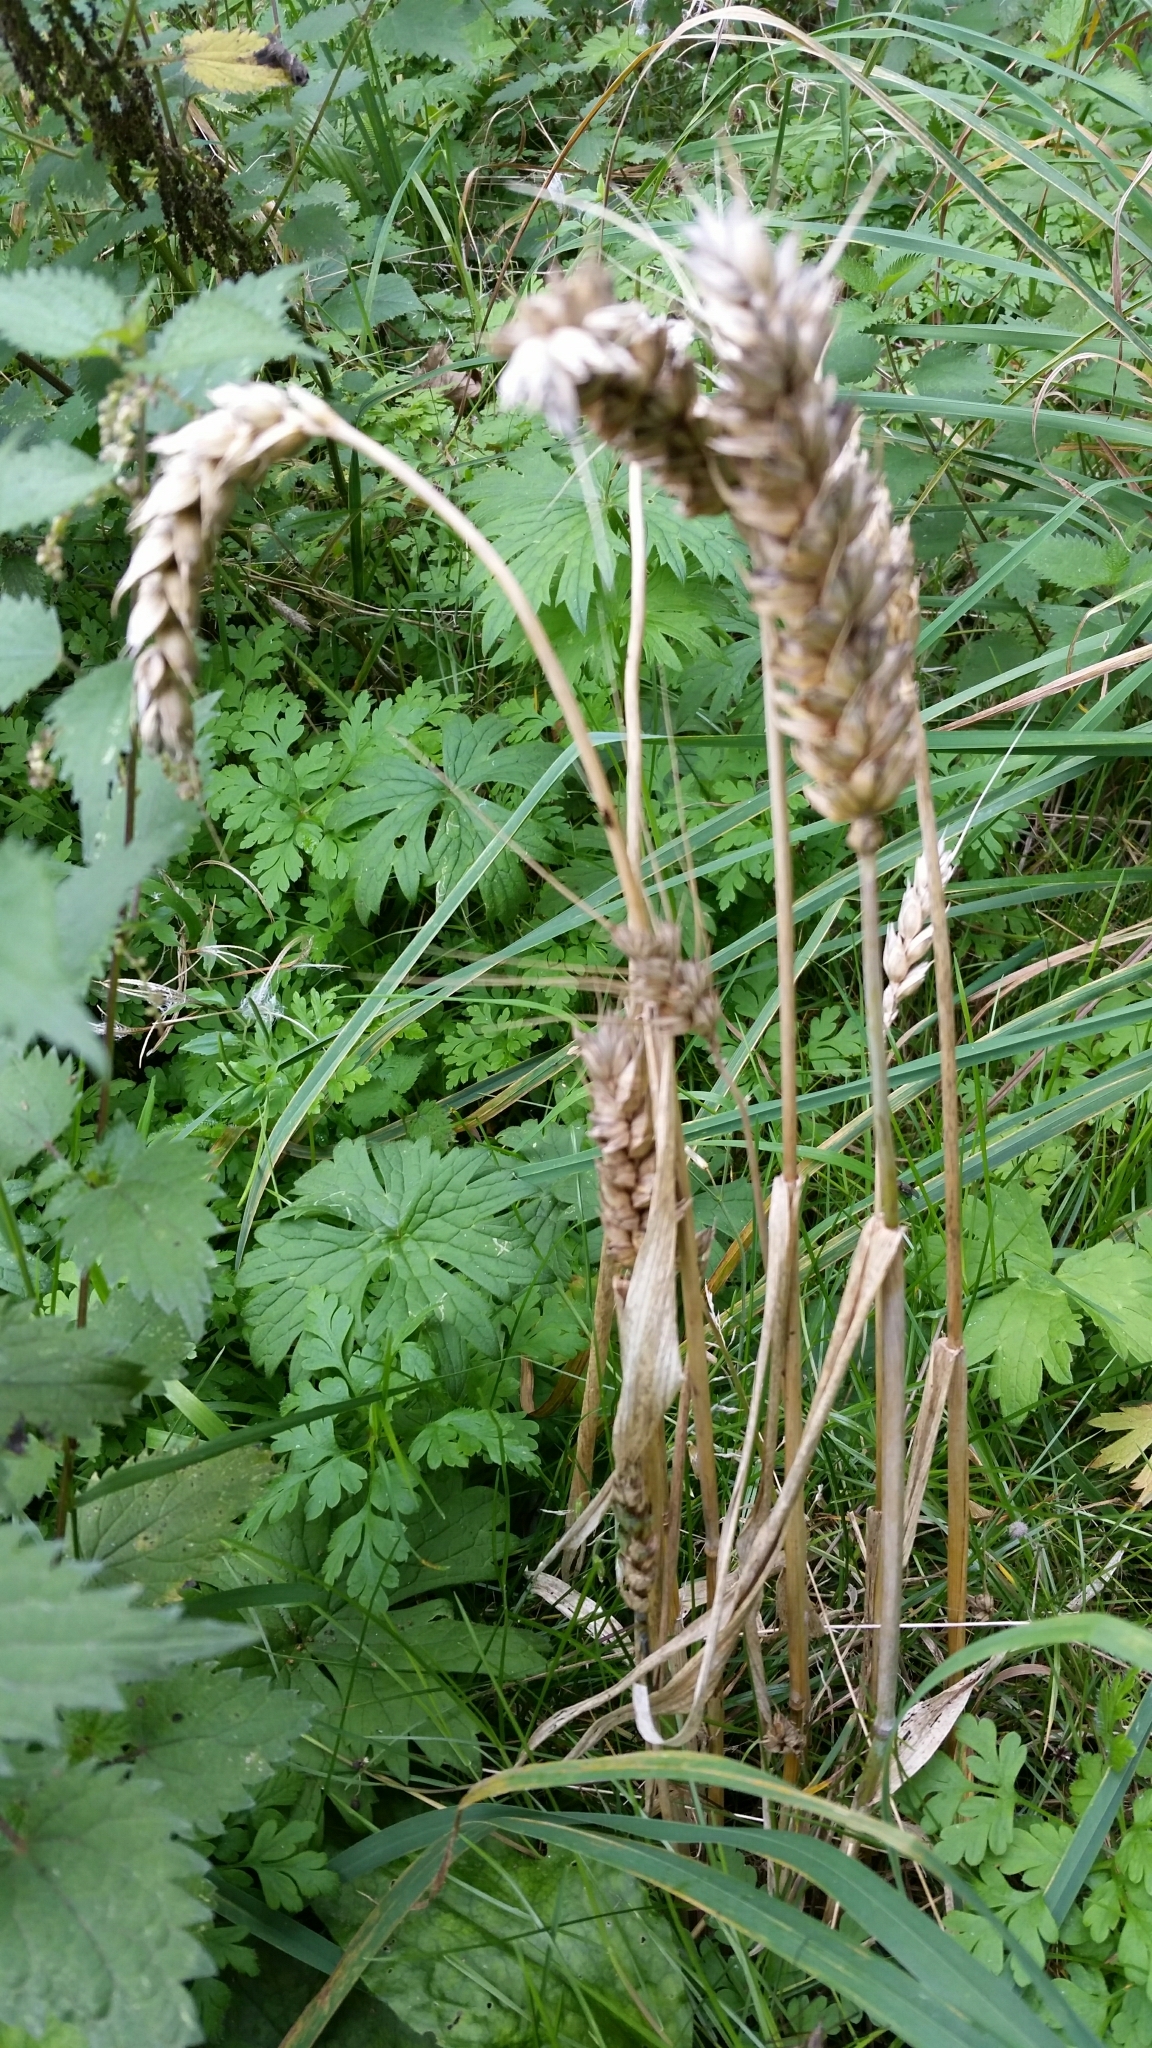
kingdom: Plantae
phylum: Tracheophyta
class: Liliopsida
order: Poales
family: Poaceae
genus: Triticum
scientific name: Triticum aestivum
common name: Common wheat
